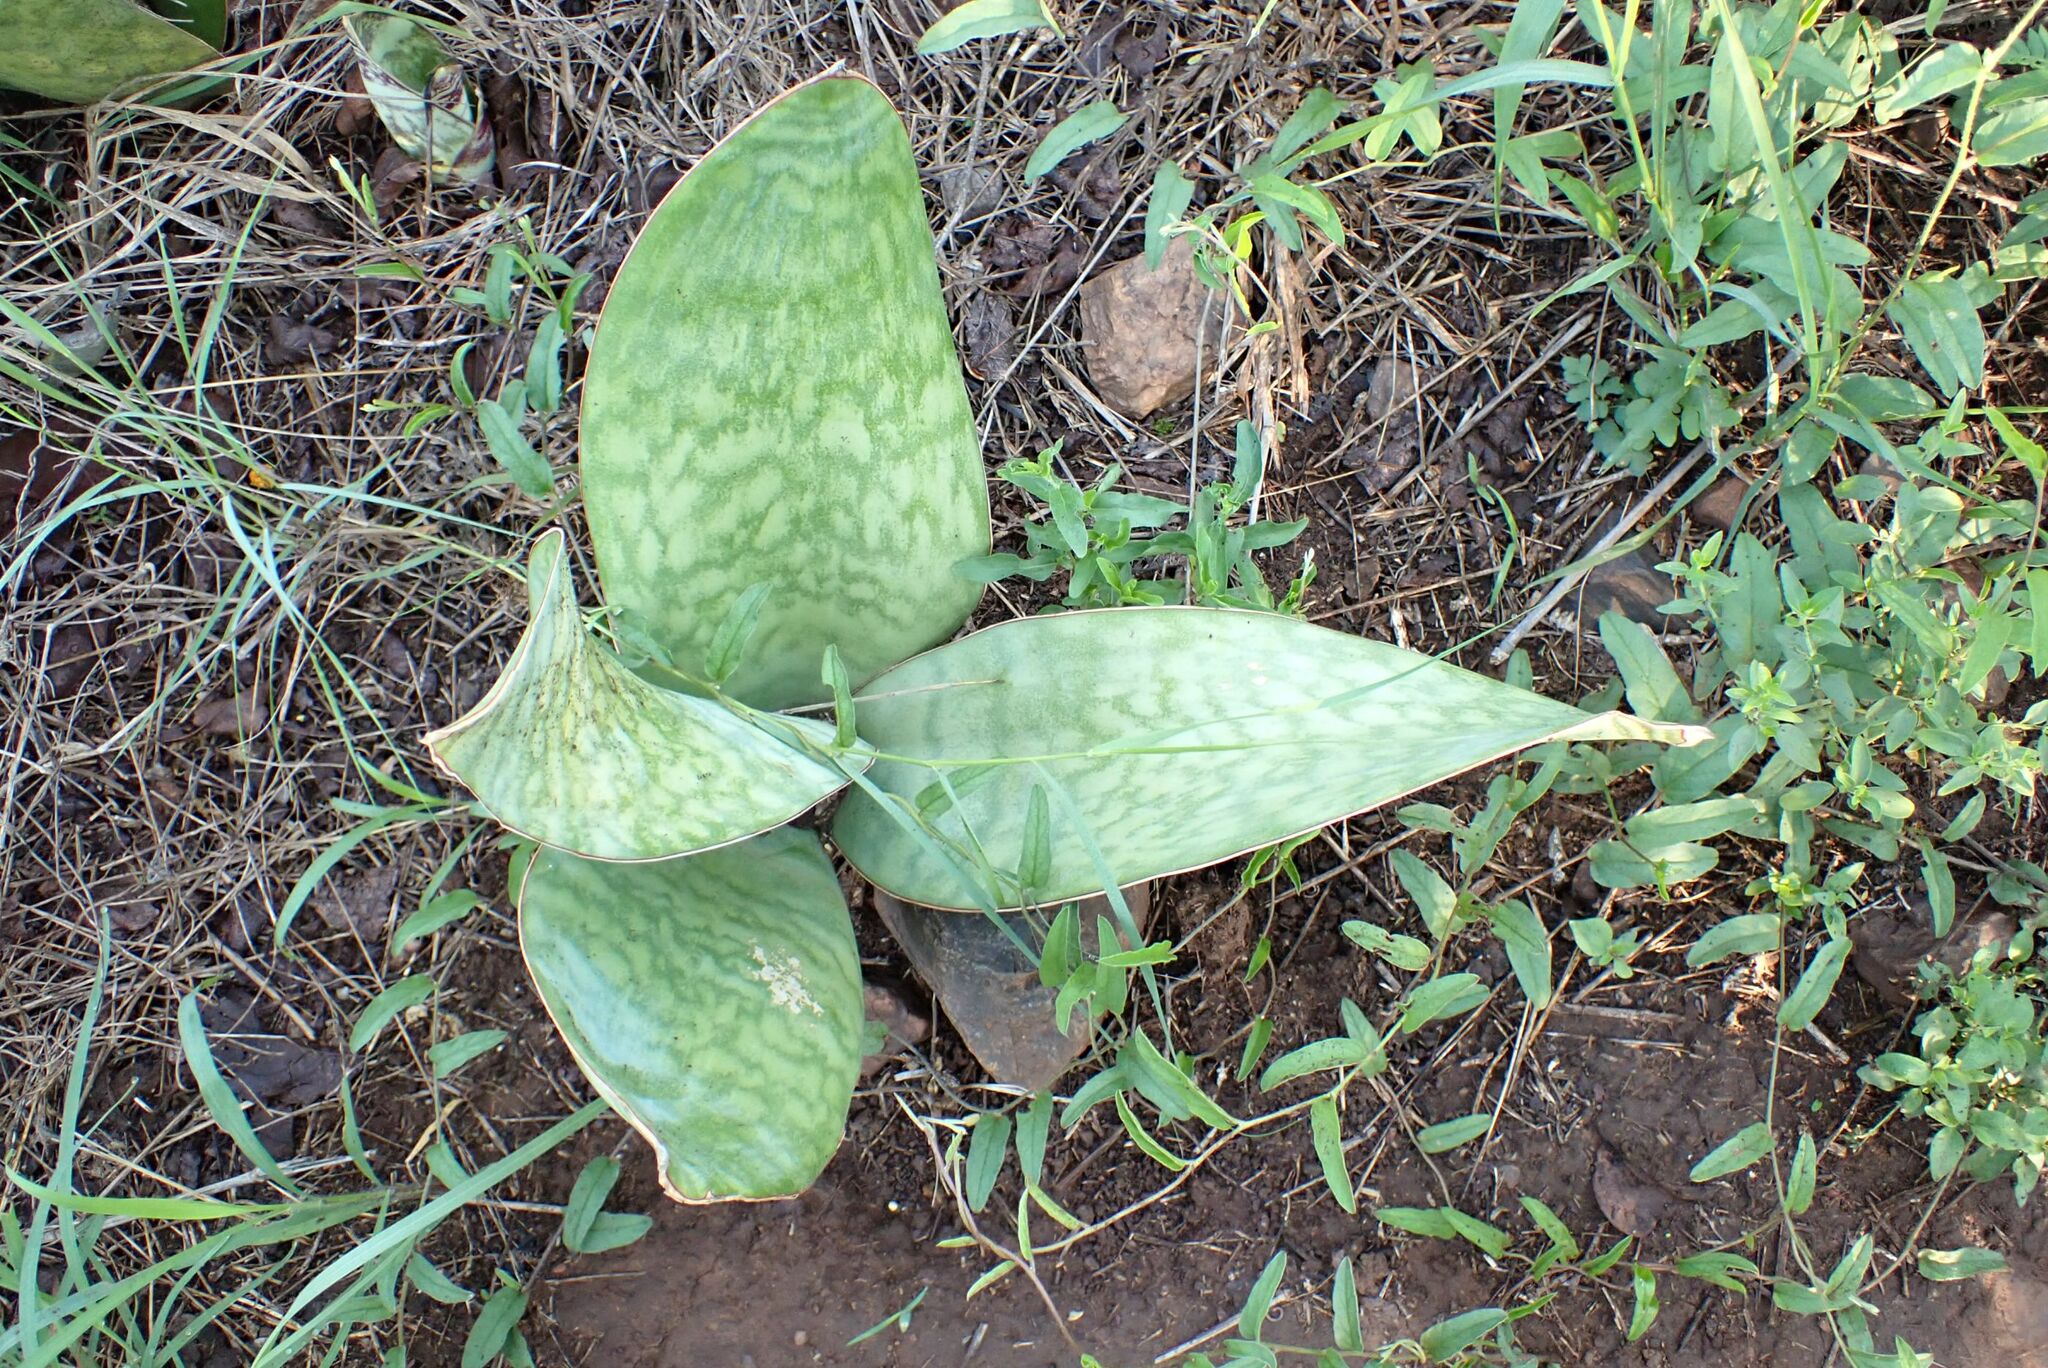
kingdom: Plantae
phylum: Tracheophyta
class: Liliopsida
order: Asparagales
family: Asparagaceae
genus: Dracaena
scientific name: Dracaena hyacinthoides
